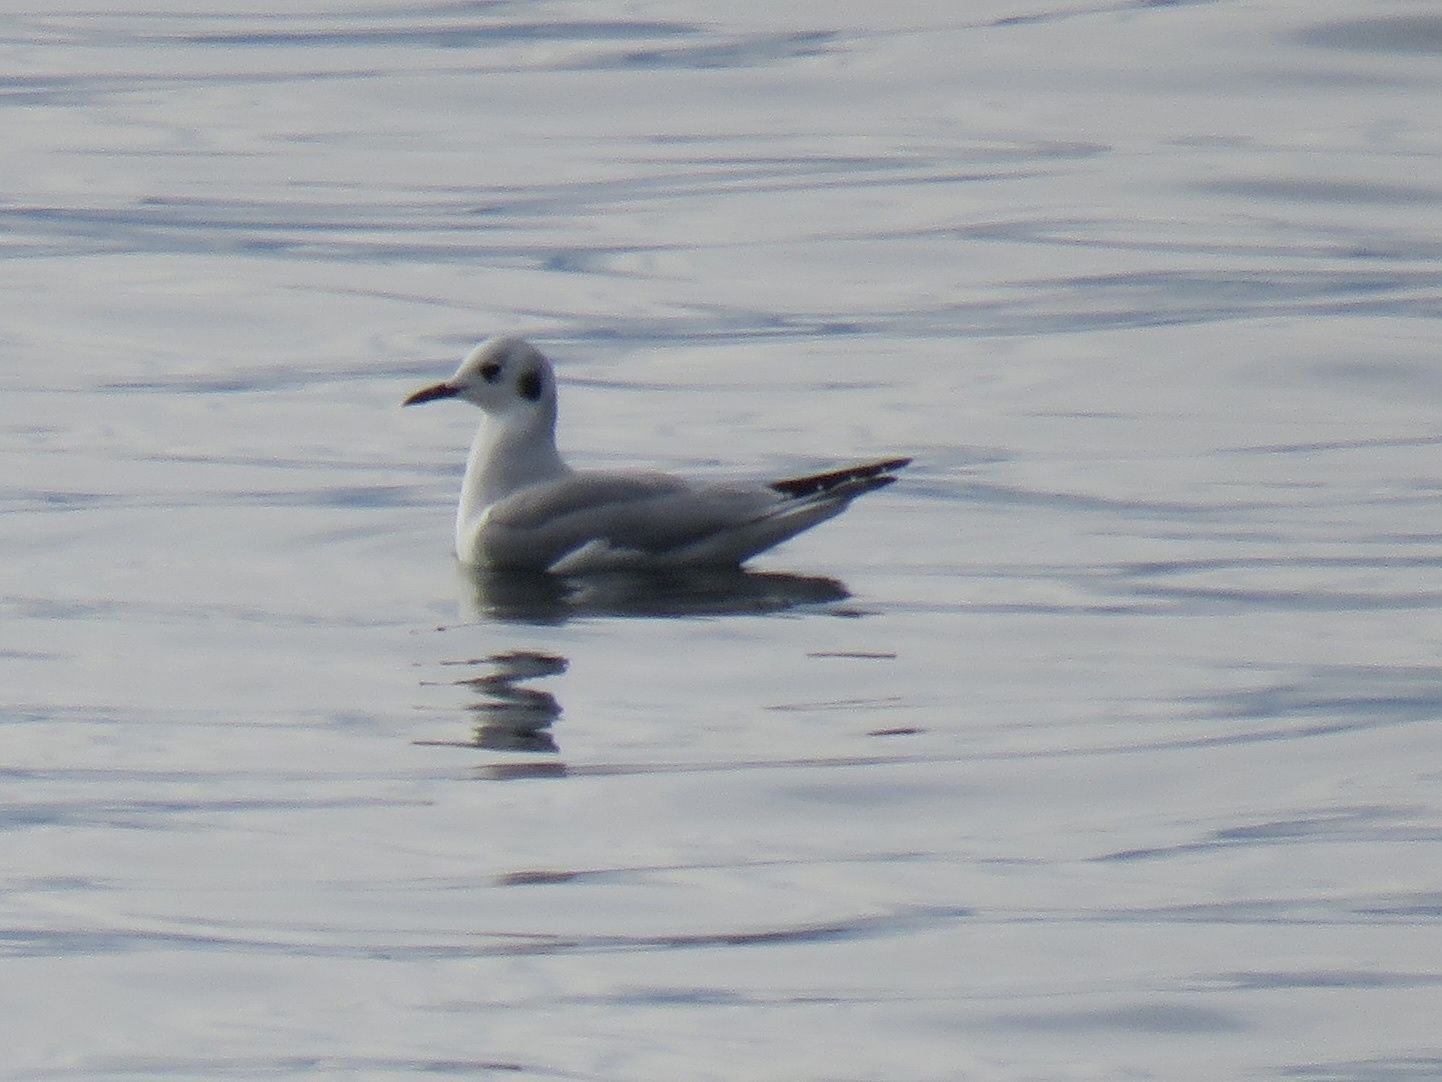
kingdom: Animalia
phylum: Chordata
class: Aves
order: Charadriiformes
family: Laridae
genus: Chroicocephalus
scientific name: Chroicocephalus philadelphia
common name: Bonaparte's gull
